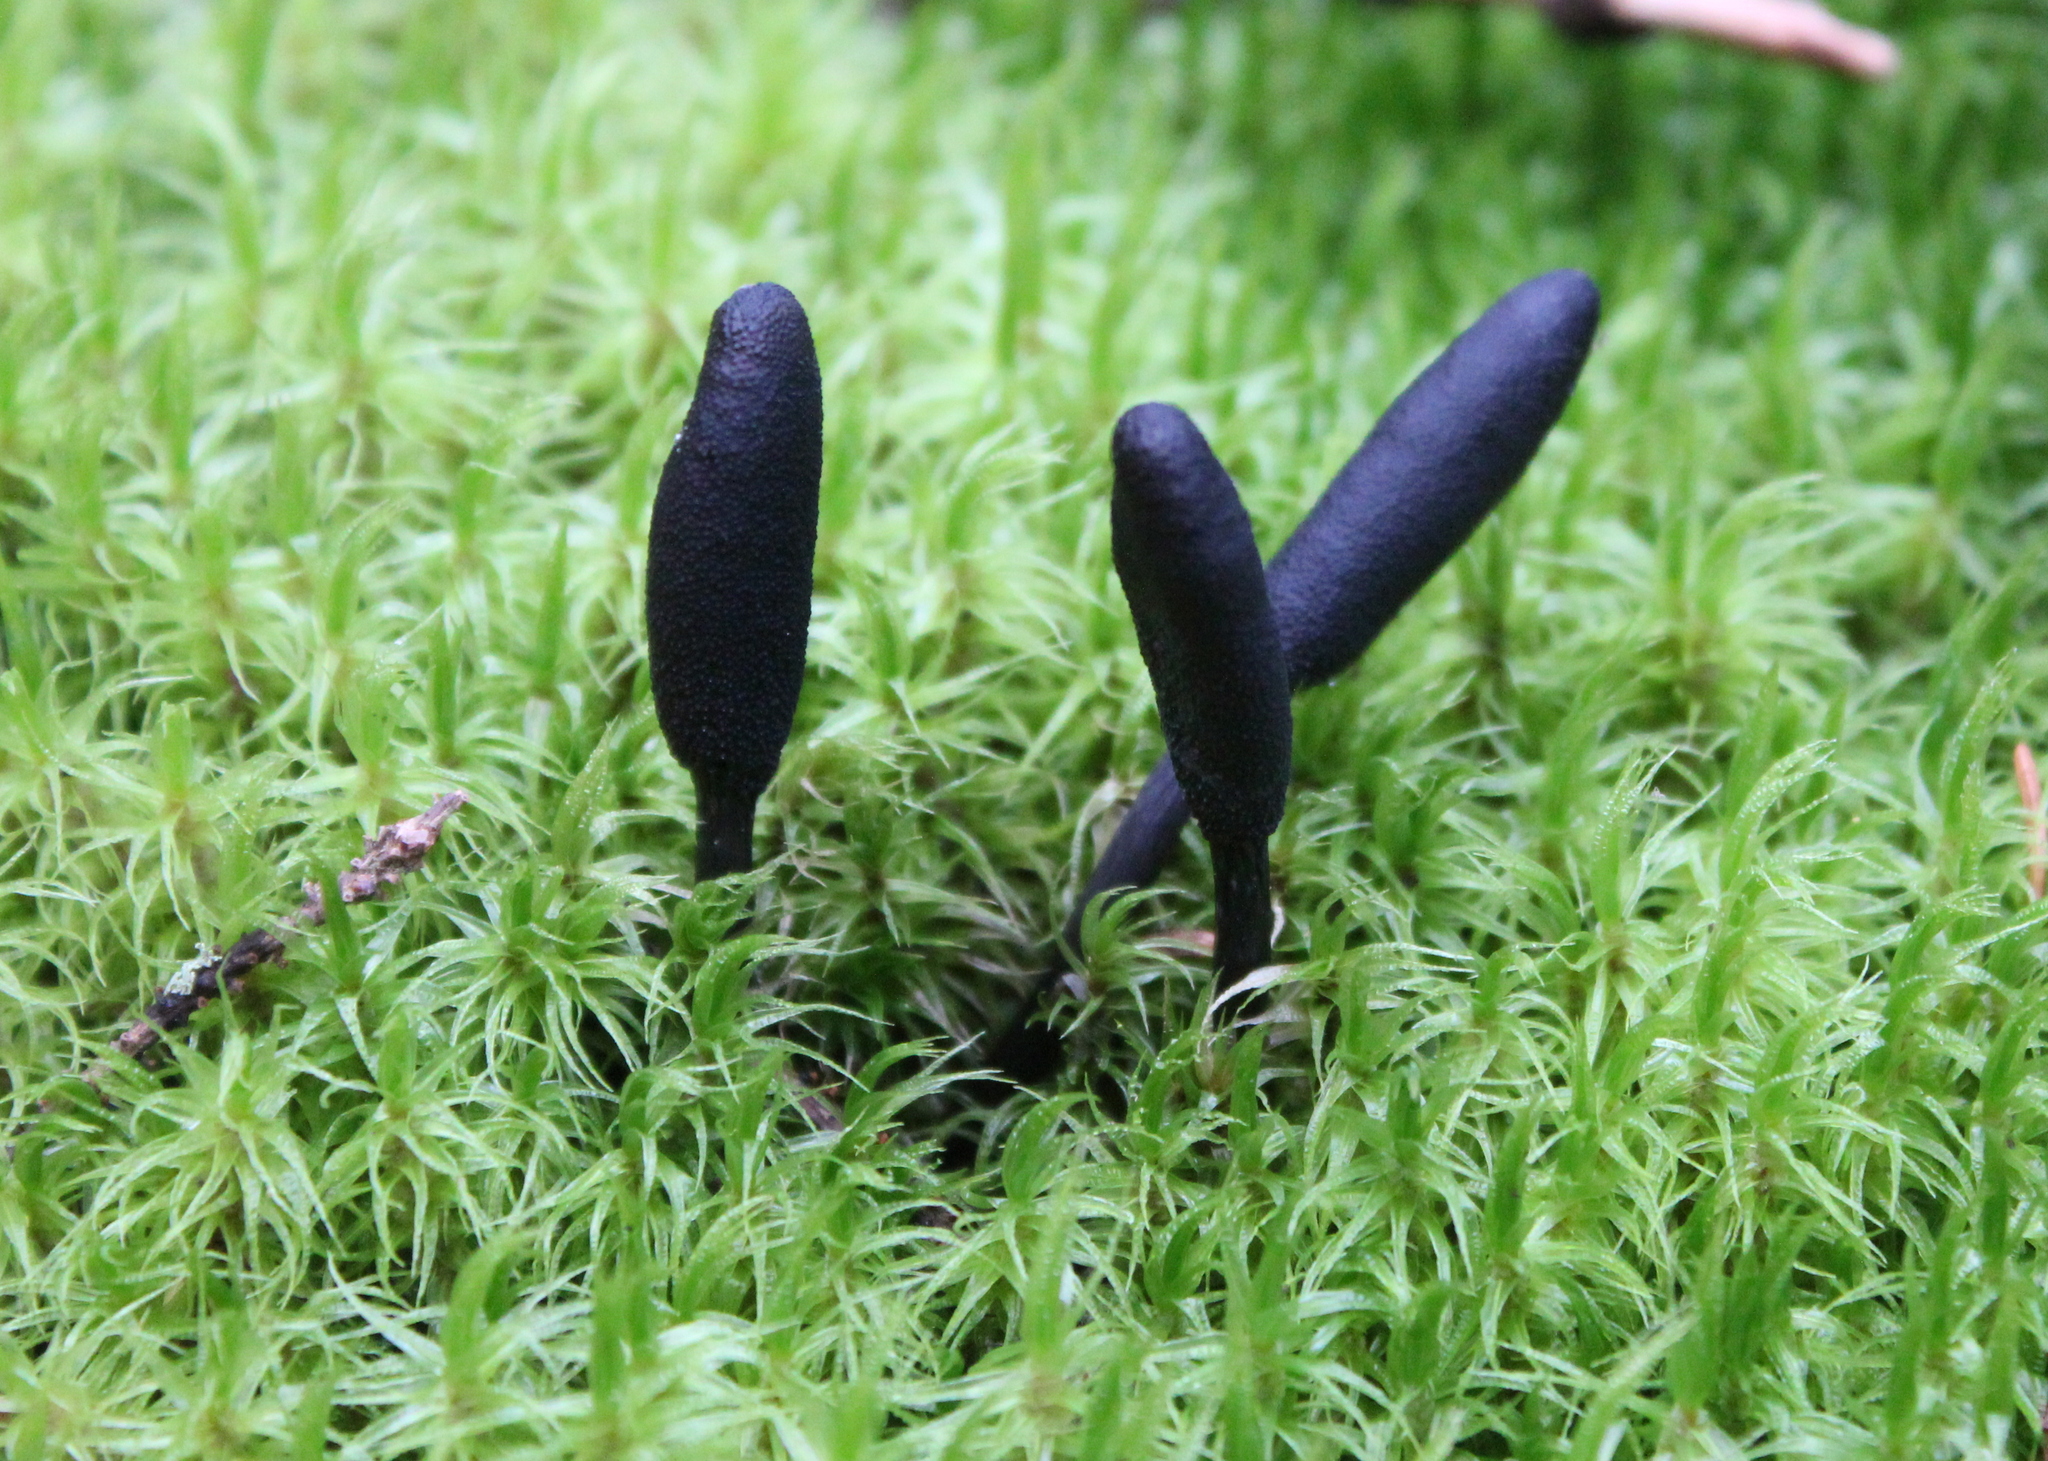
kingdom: Fungi
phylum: Ascomycota
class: Sordariomycetes
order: Hypocreales
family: Ophiocordycipitaceae
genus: Tolypocladium
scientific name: Tolypocladium ophioglossoides
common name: Snaketongue truffleclub
